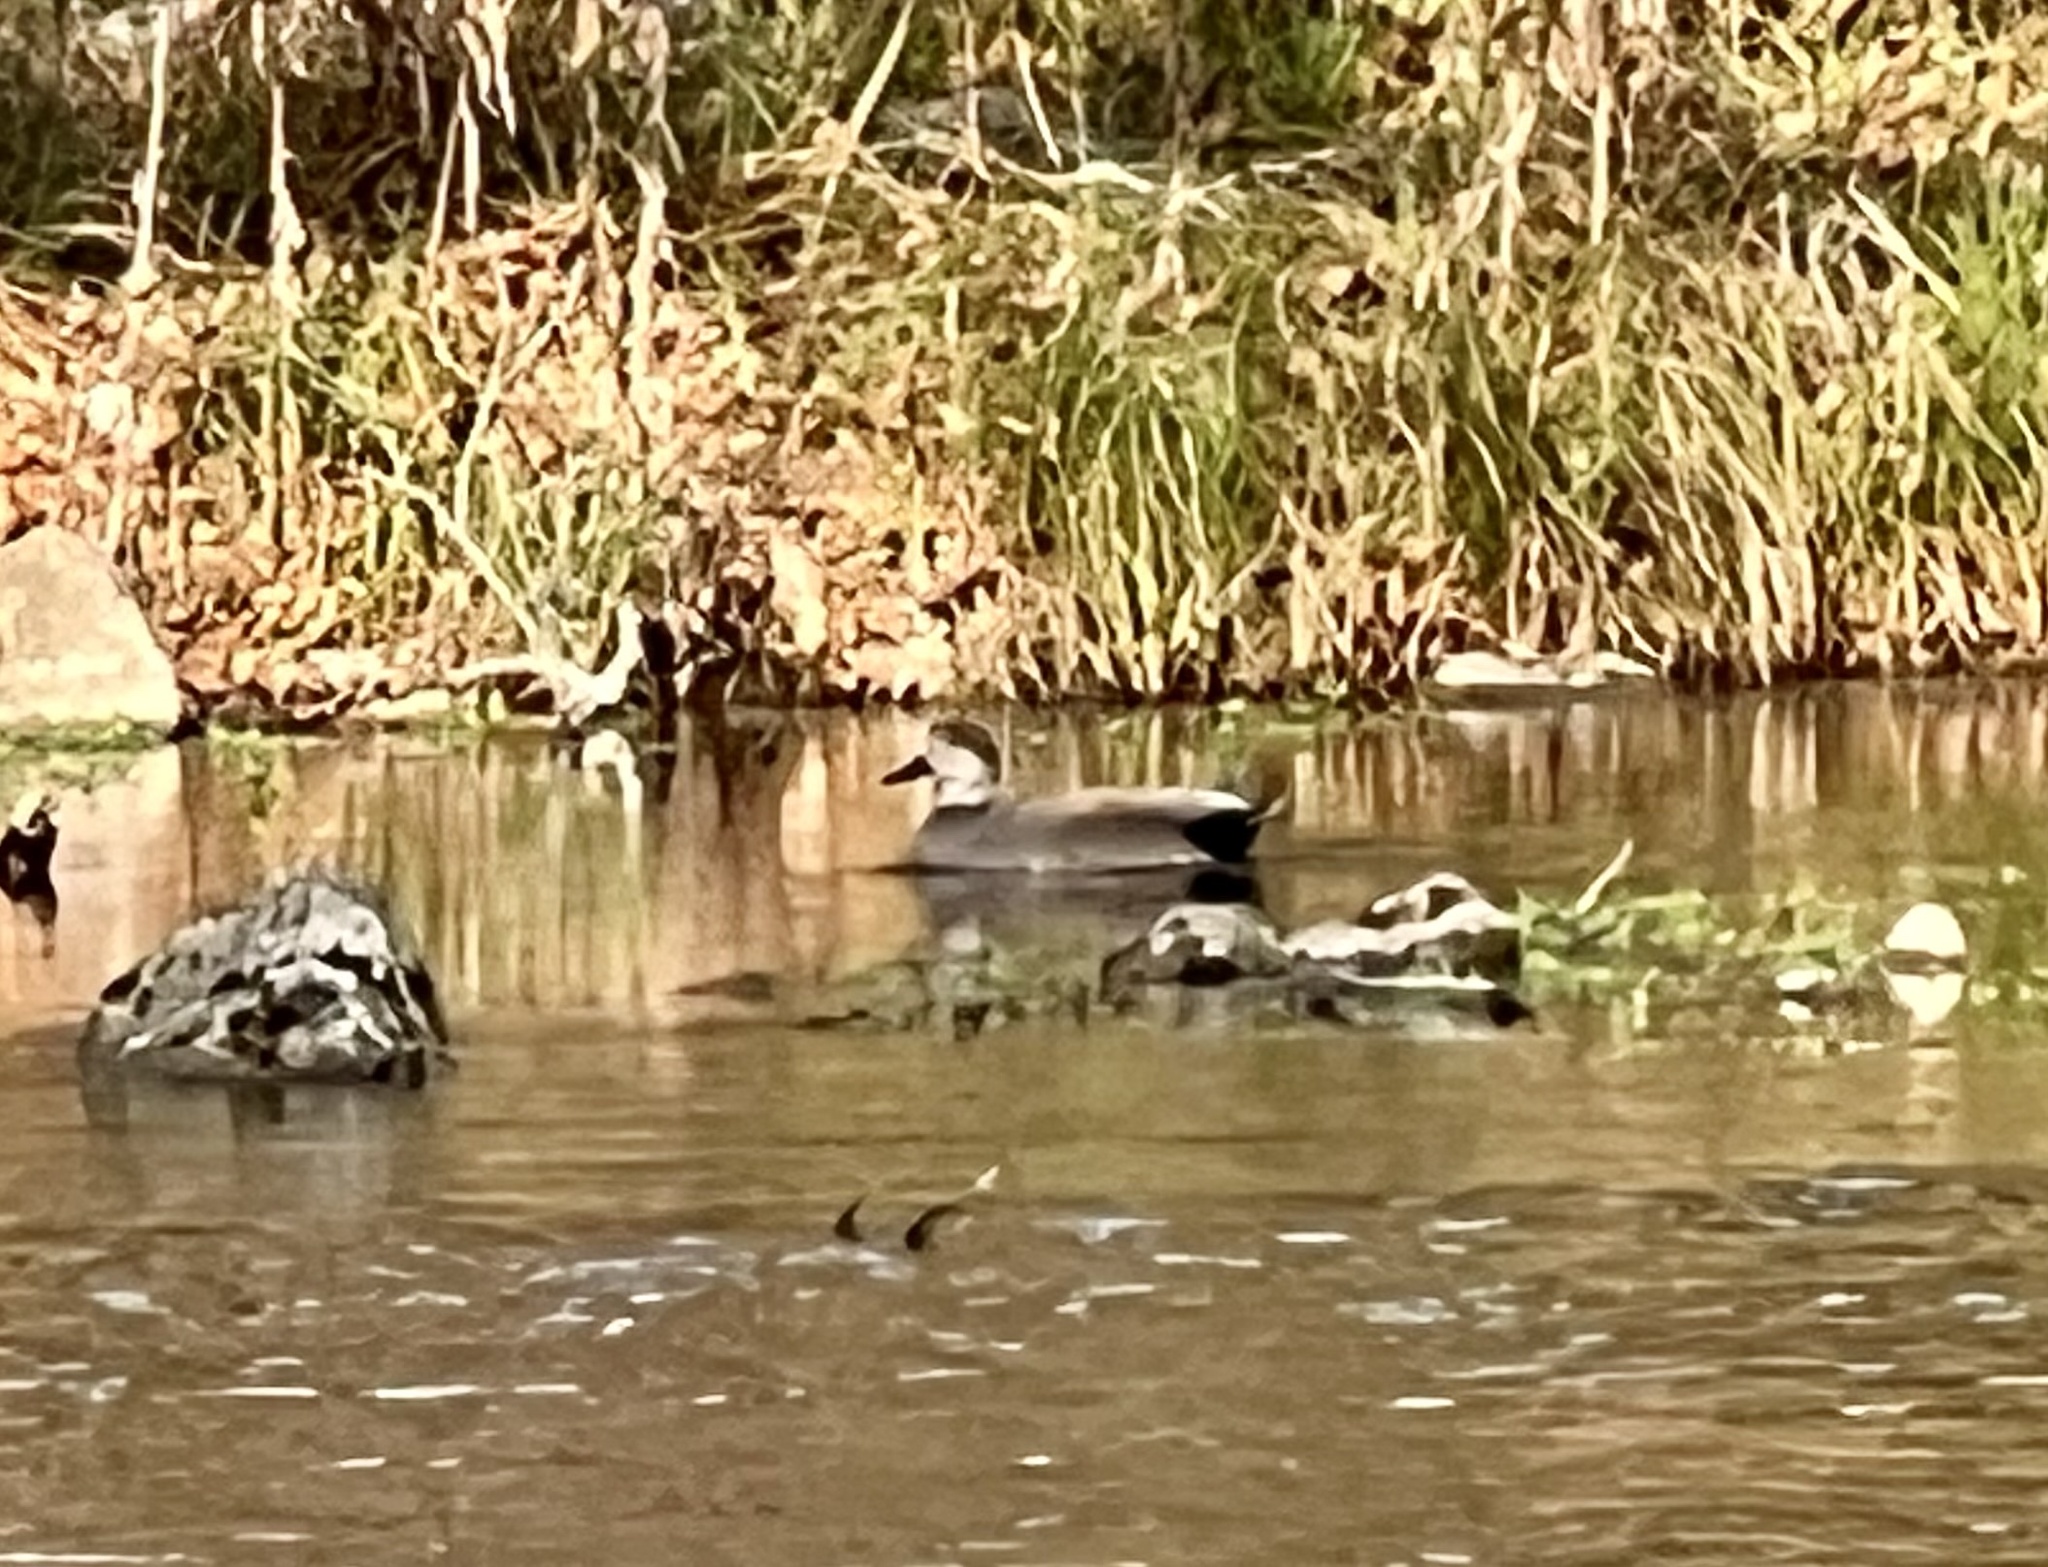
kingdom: Animalia
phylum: Chordata
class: Aves
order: Anseriformes
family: Anatidae
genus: Mareca
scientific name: Mareca strepera
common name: Gadwall
